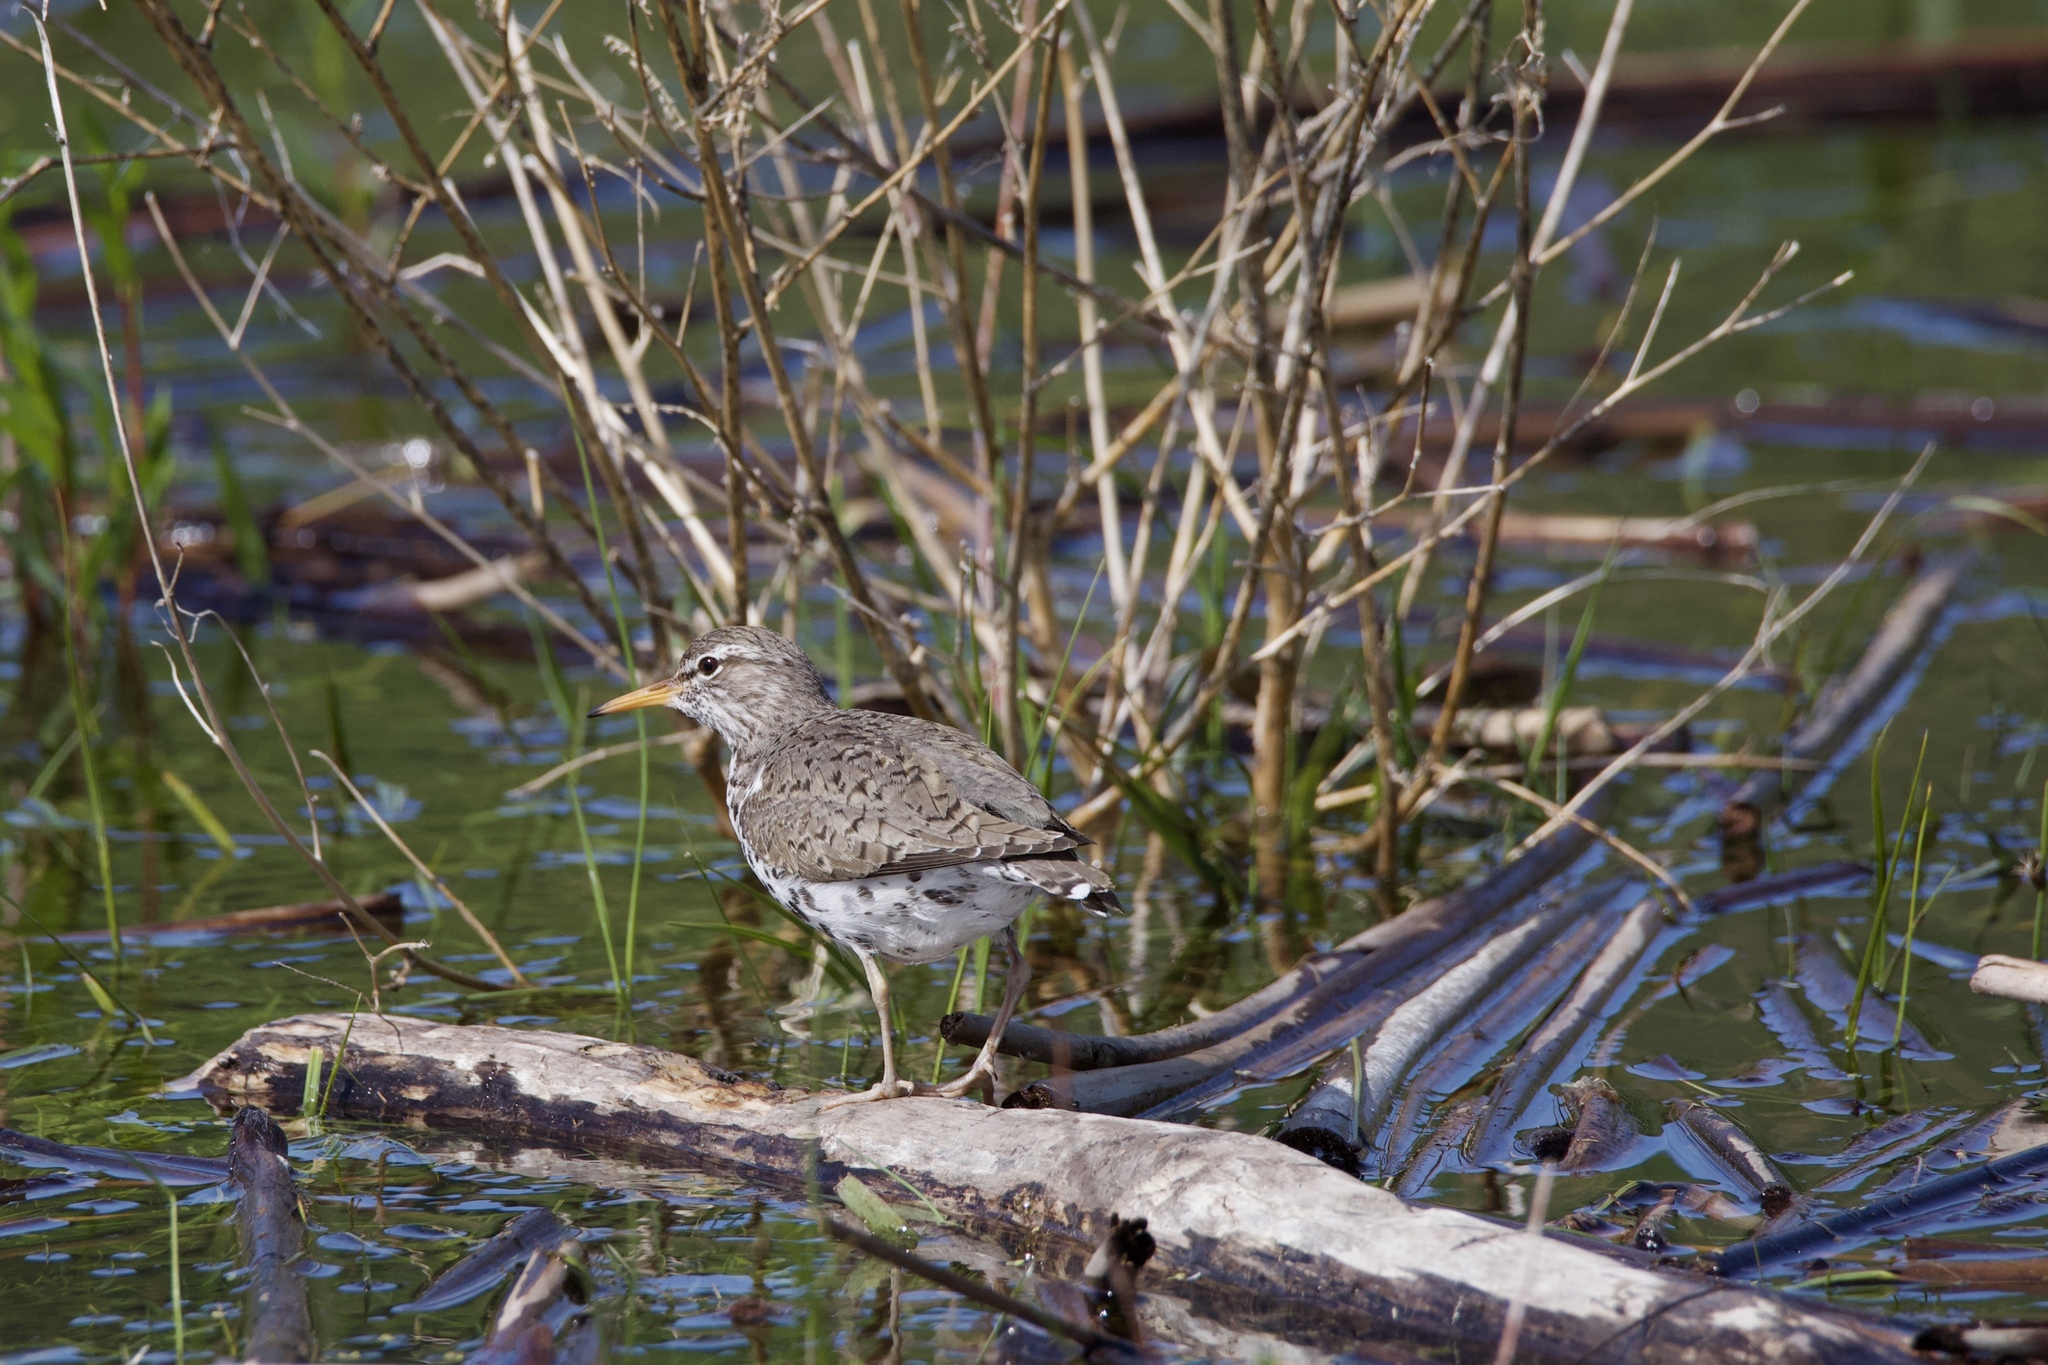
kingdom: Animalia
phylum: Chordata
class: Aves
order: Charadriiformes
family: Scolopacidae
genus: Actitis
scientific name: Actitis macularius
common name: Spotted sandpiper
